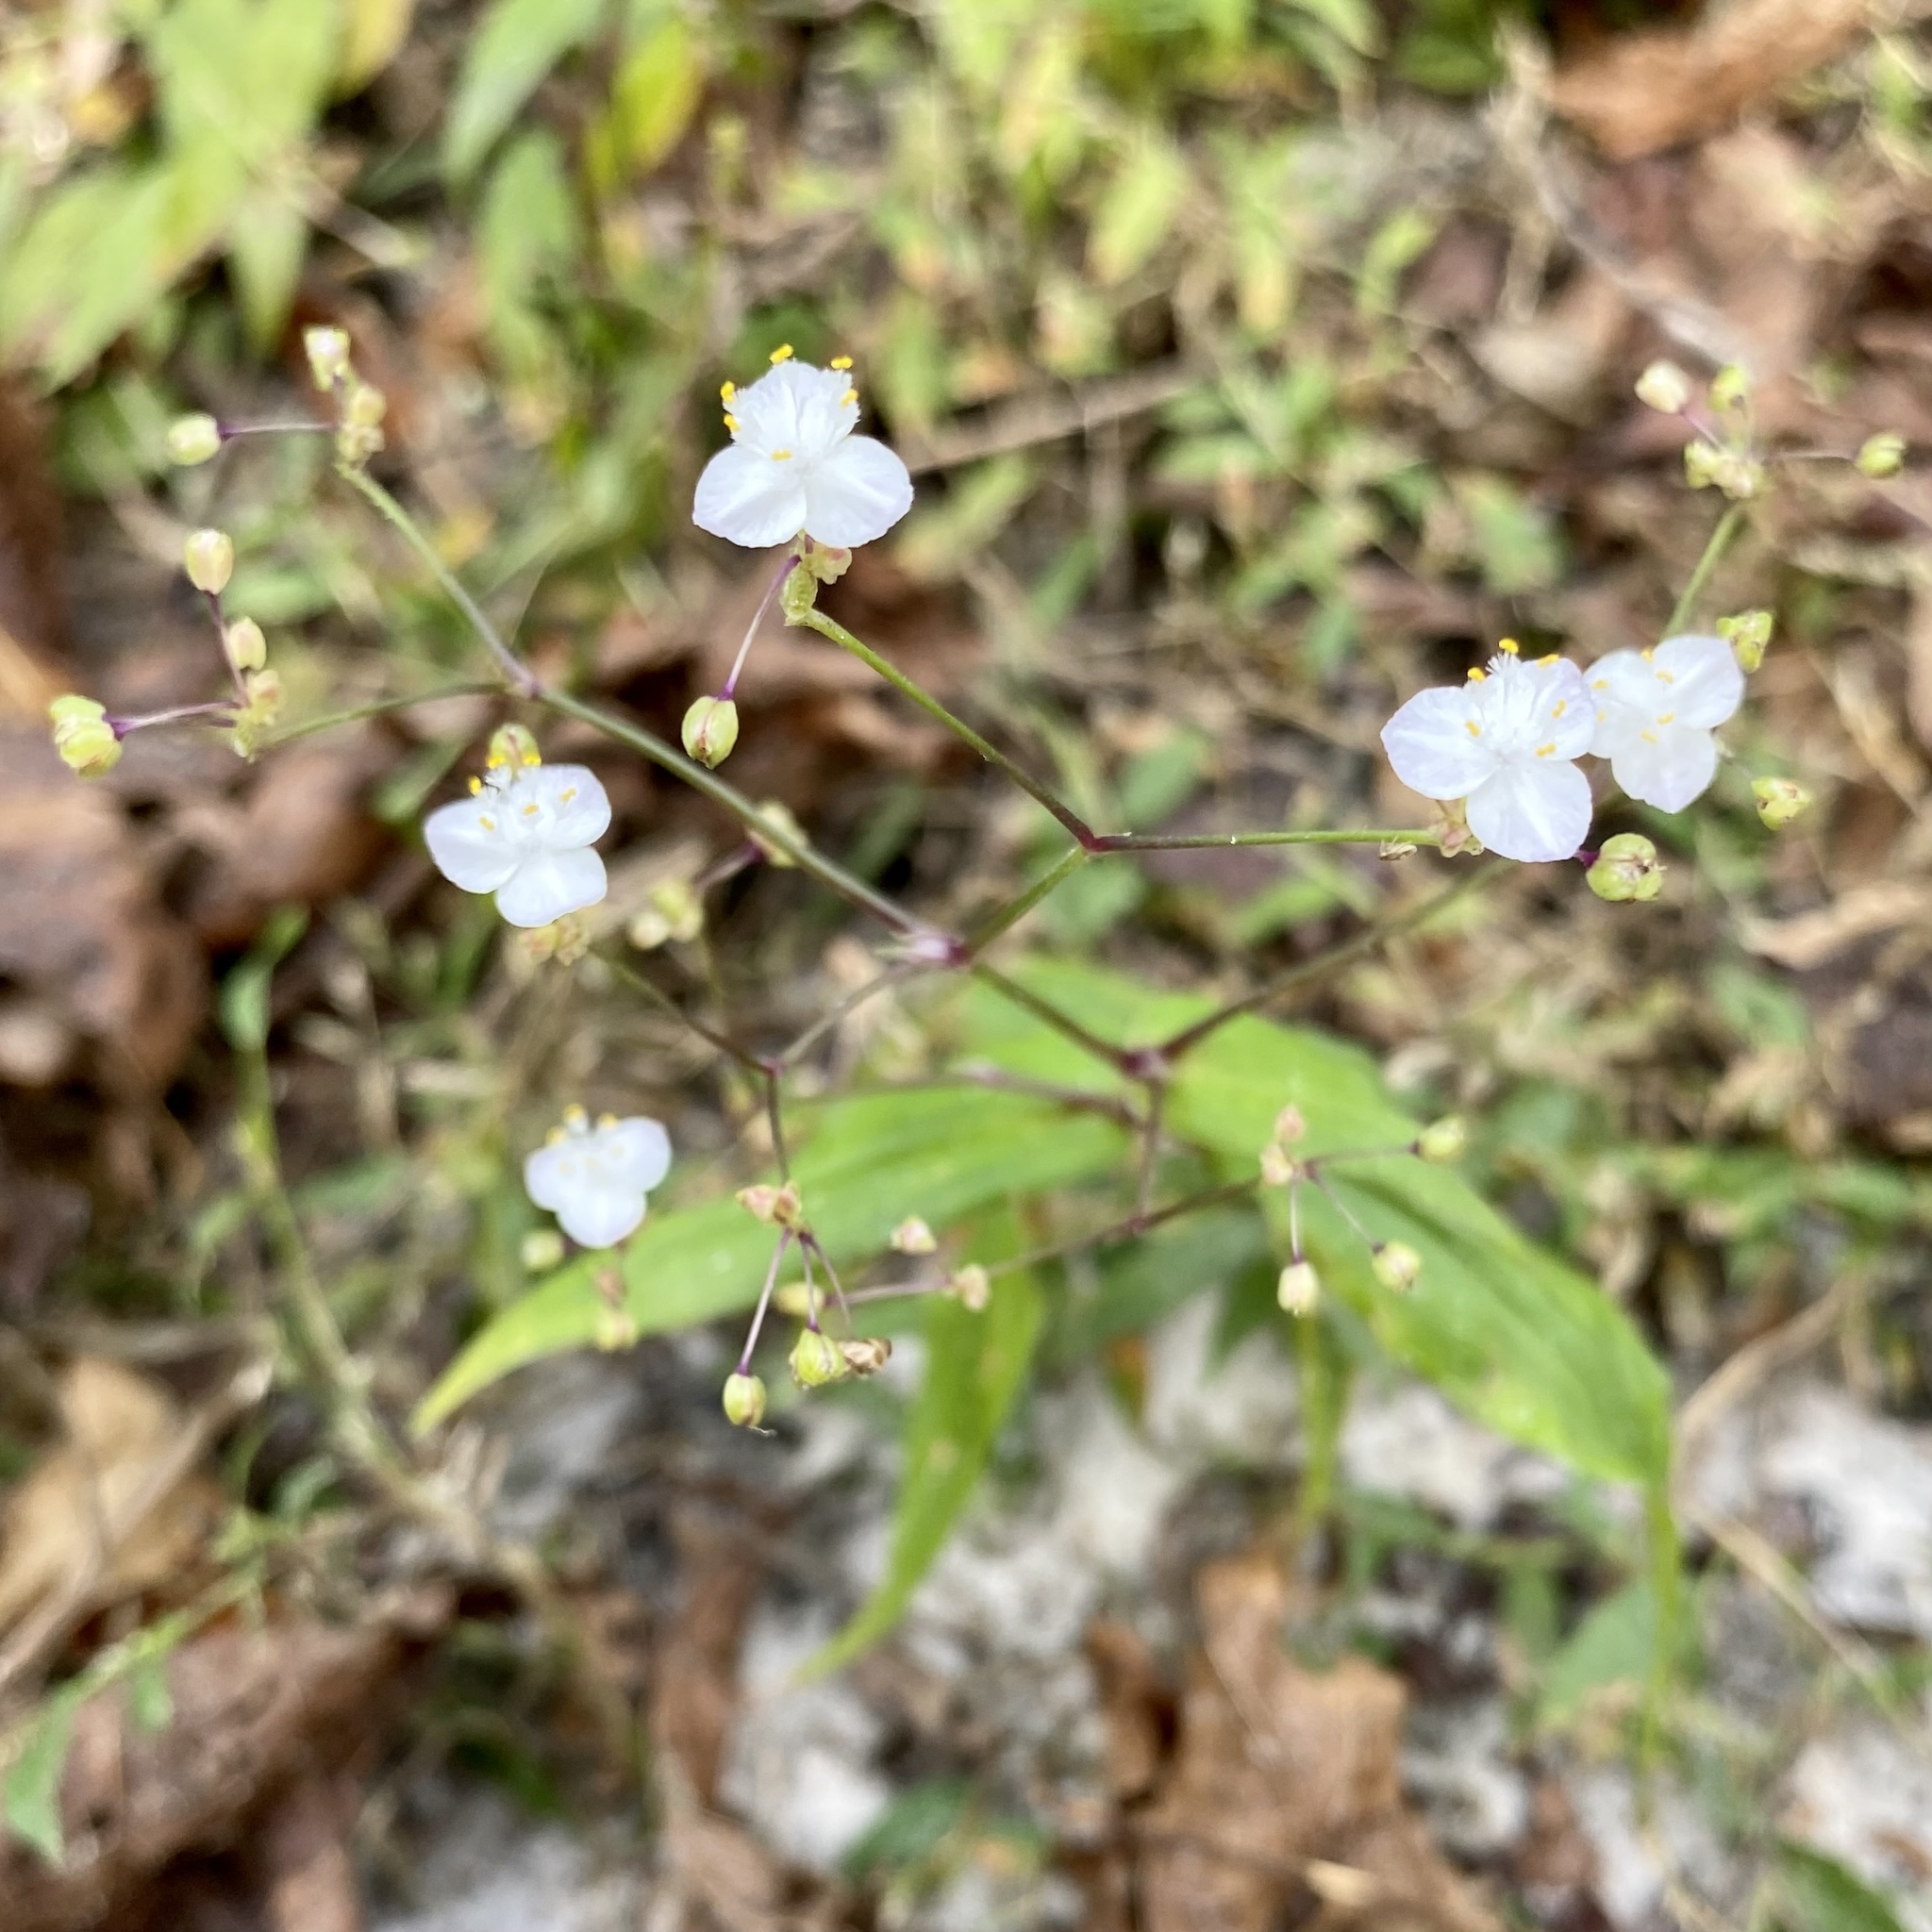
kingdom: Plantae
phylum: Tracheophyta
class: Liliopsida
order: Commelinales
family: Commelinaceae
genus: Gibasis
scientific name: Gibasis pellucida
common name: Dotted bridalveil
